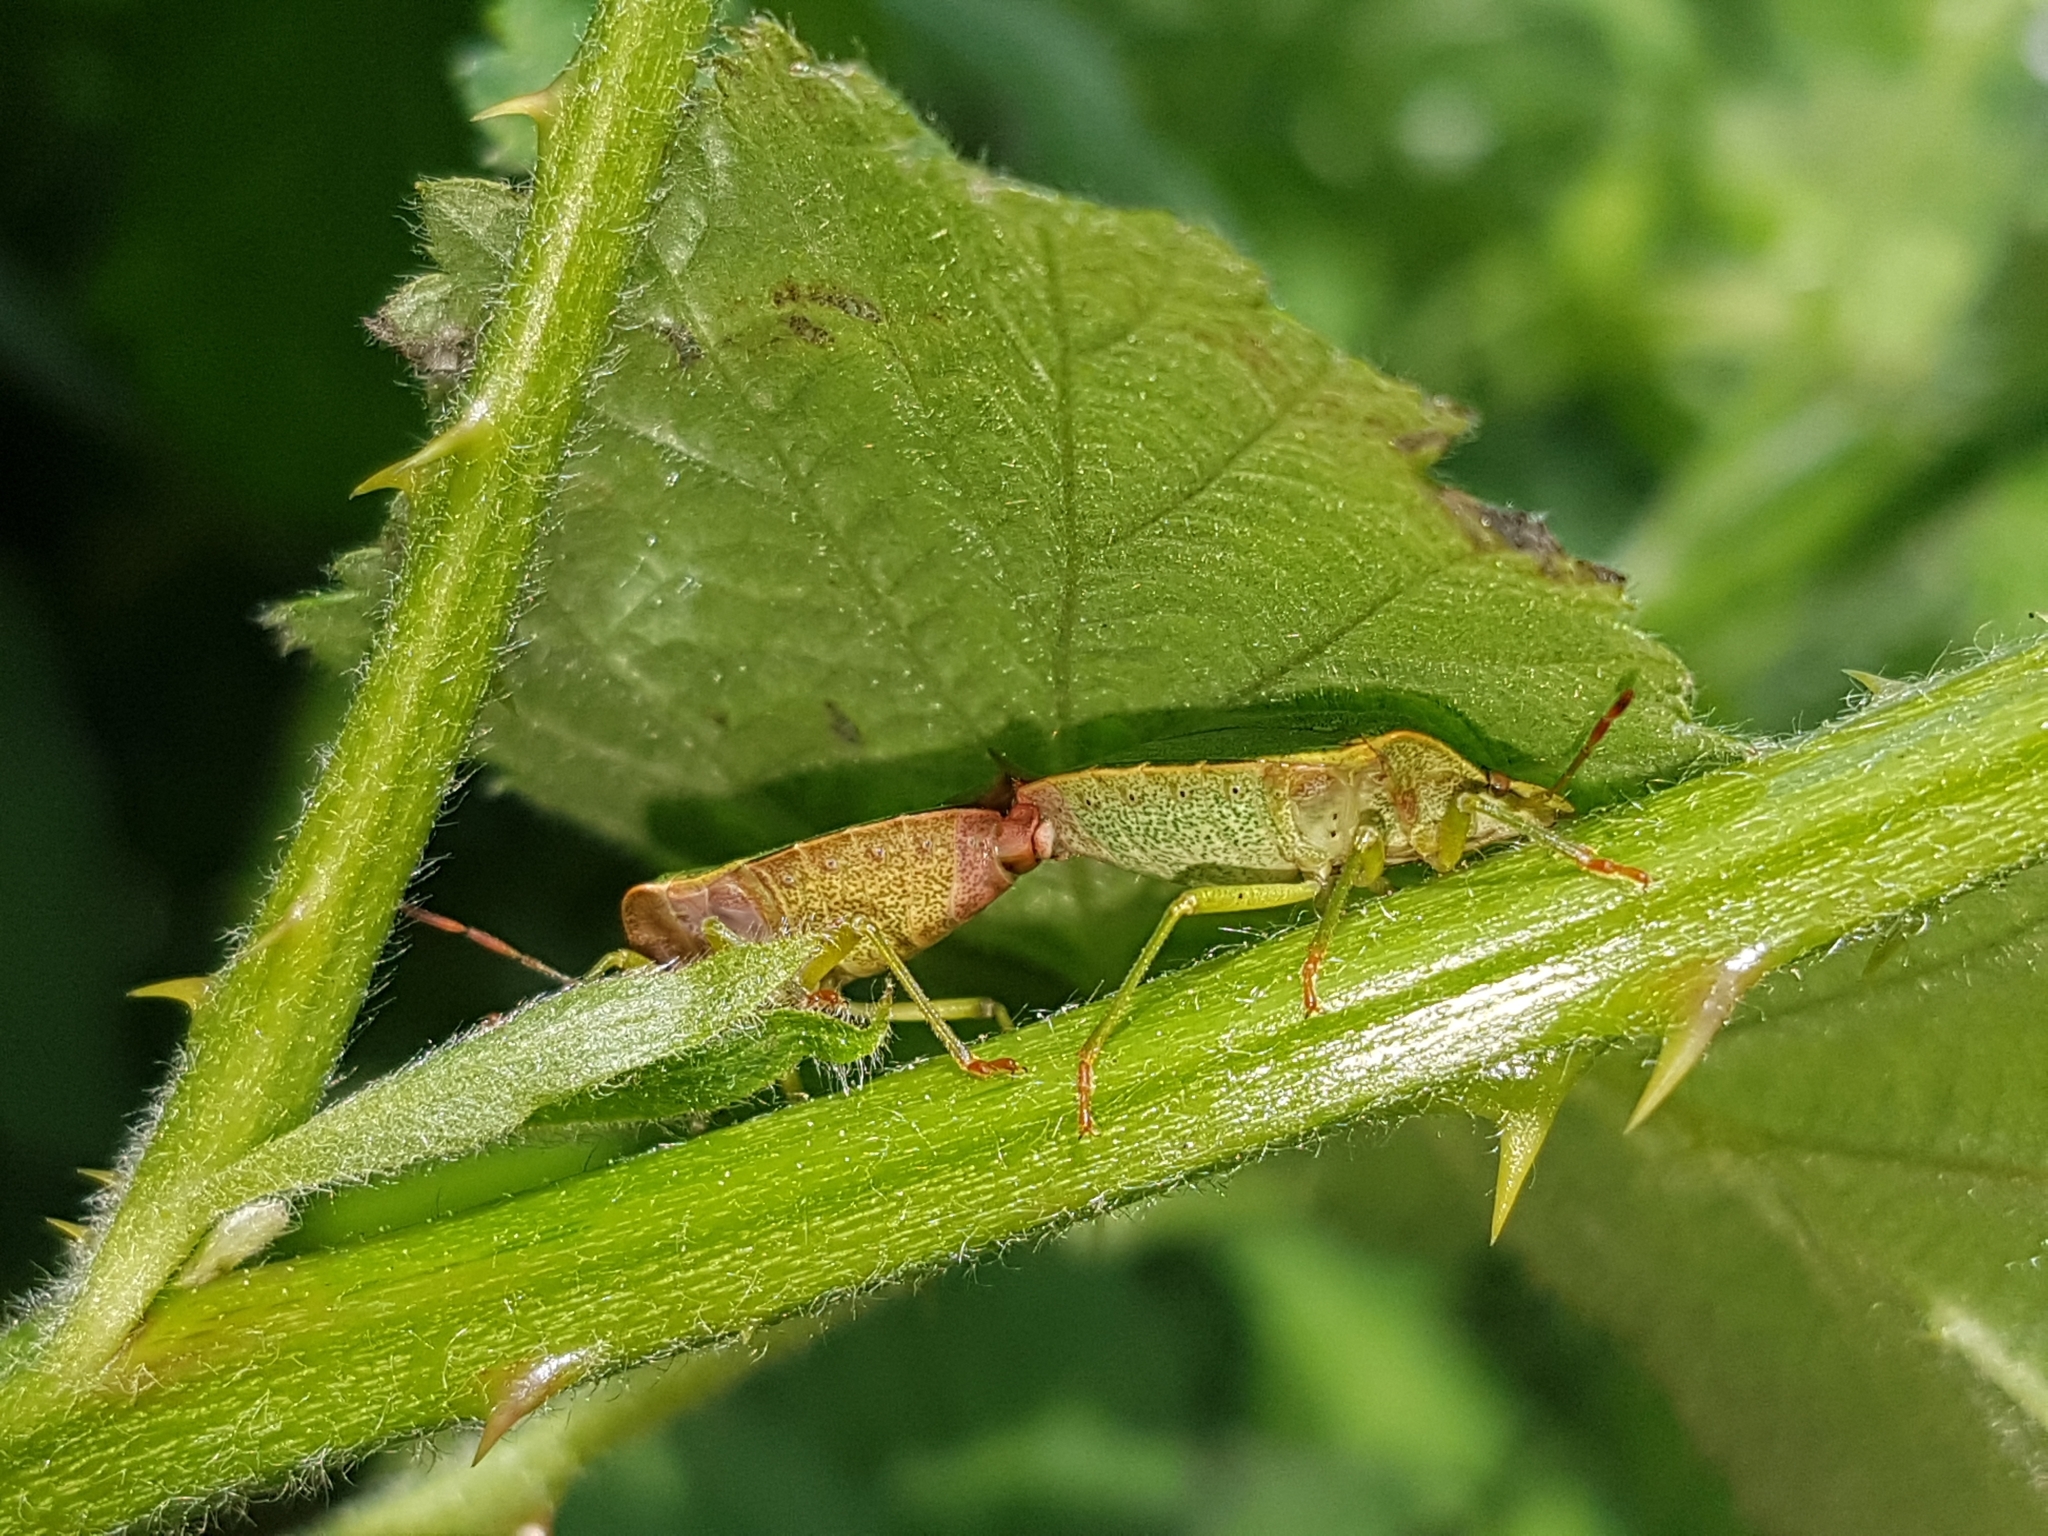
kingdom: Animalia
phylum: Arthropoda
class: Insecta
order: Hemiptera
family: Pentatomidae
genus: Palomena
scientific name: Palomena prasina
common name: Green shieldbug
